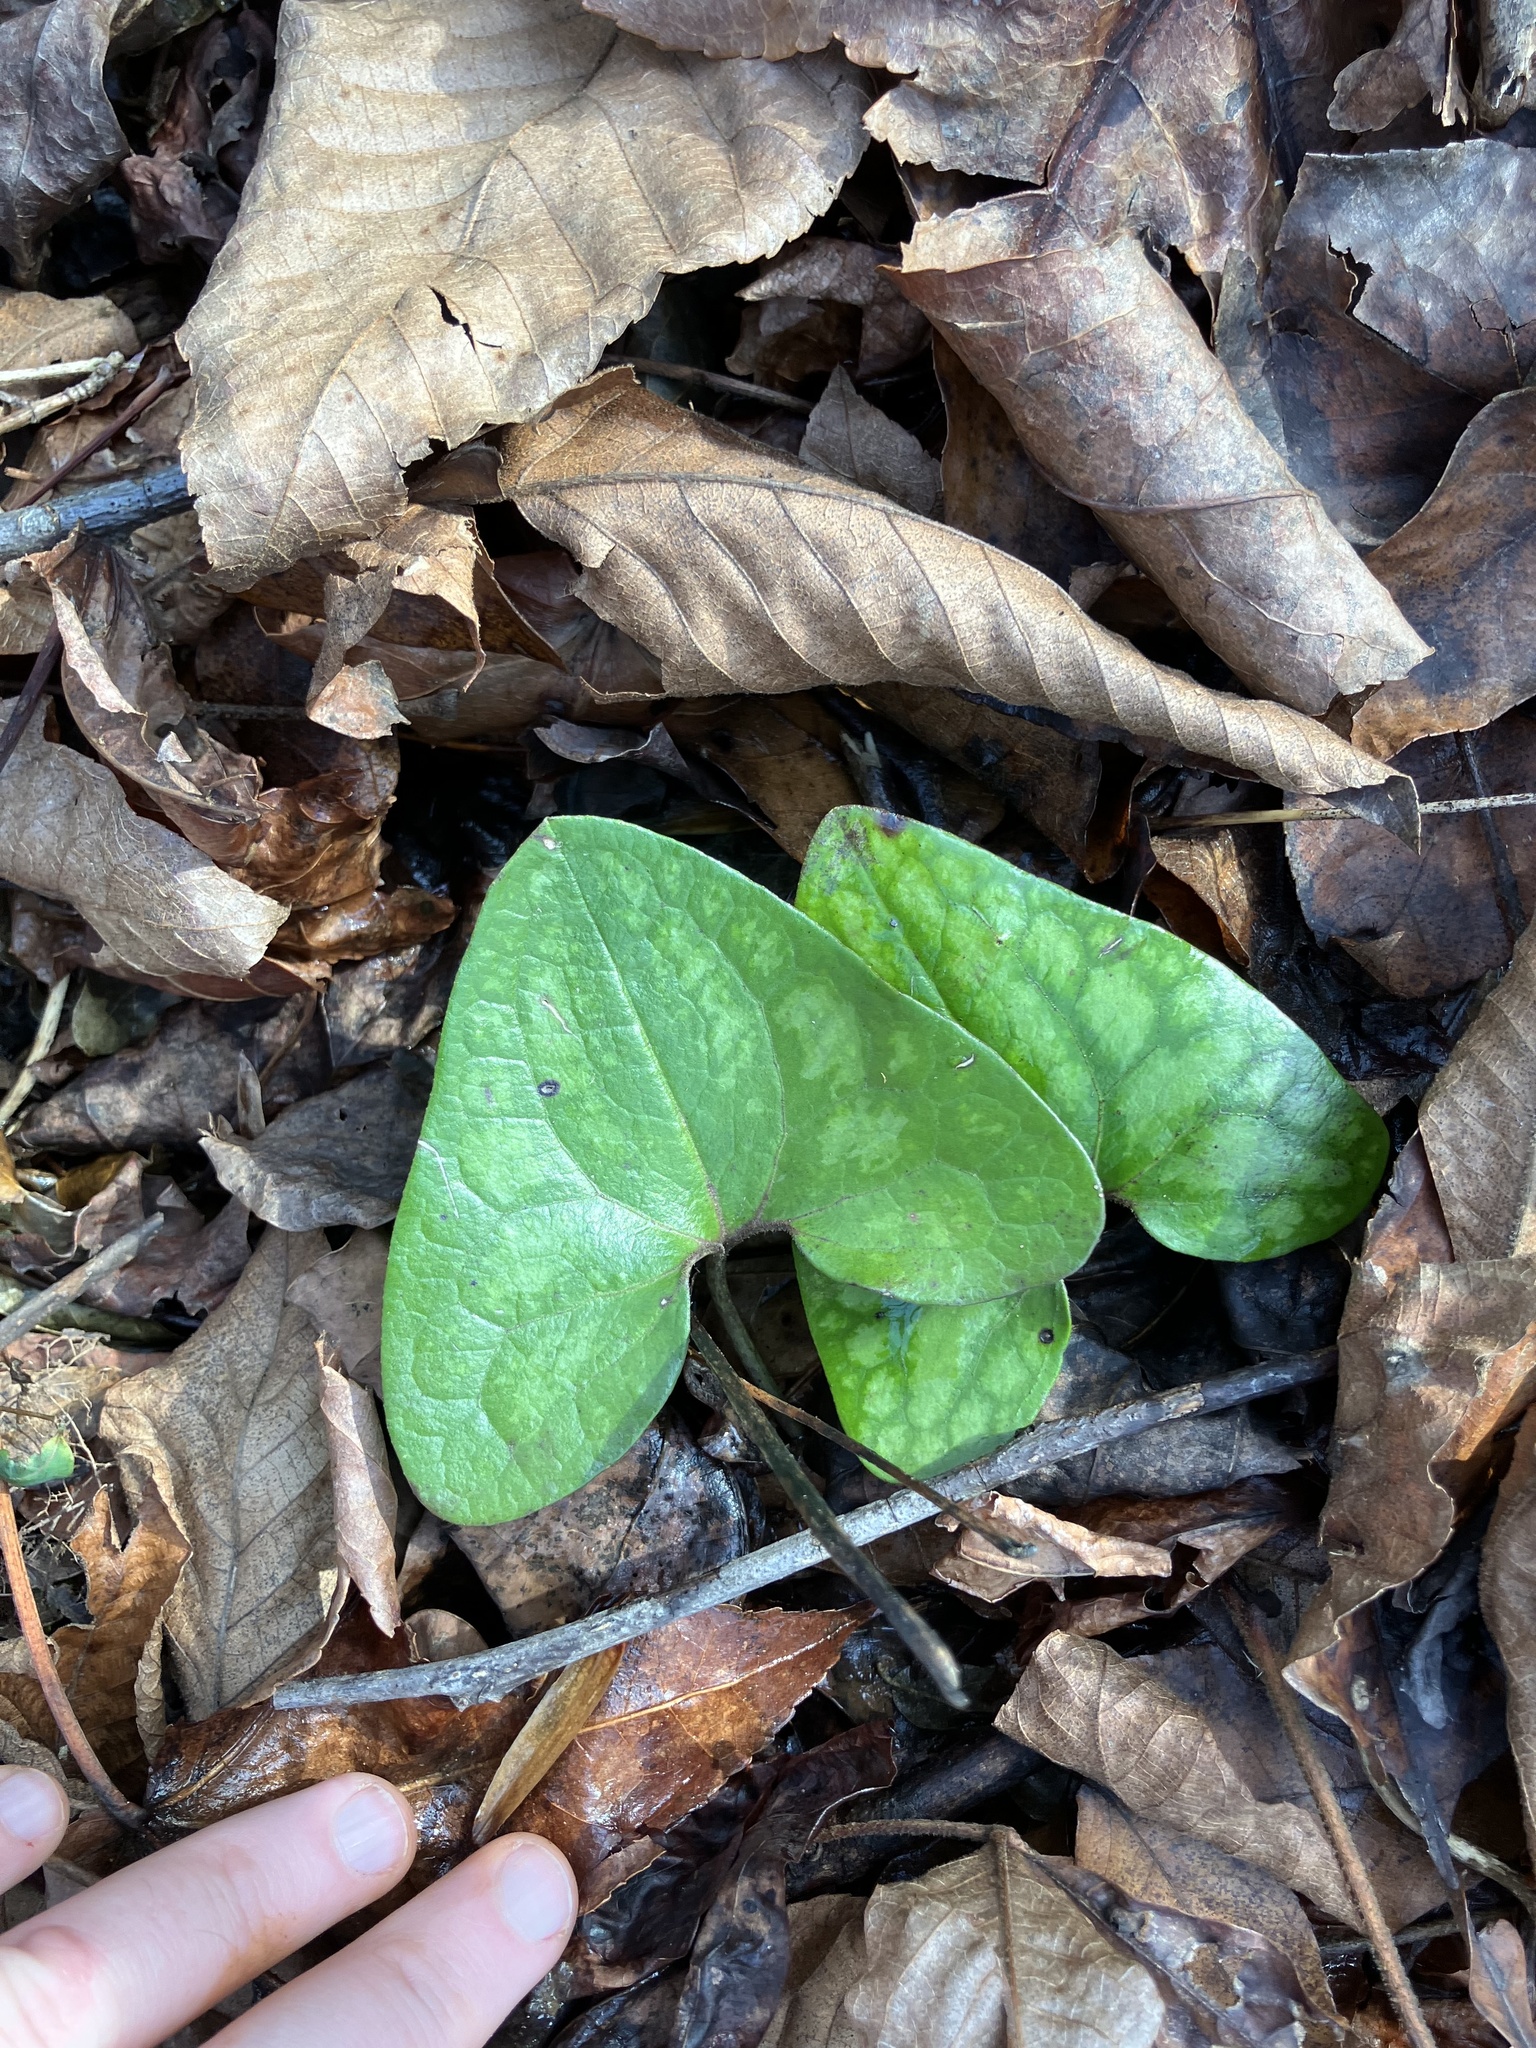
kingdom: Plantae
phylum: Tracheophyta
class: Magnoliopsida
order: Piperales
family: Aristolochiaceae
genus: Hexastylis
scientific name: Hexastylis arifolia
